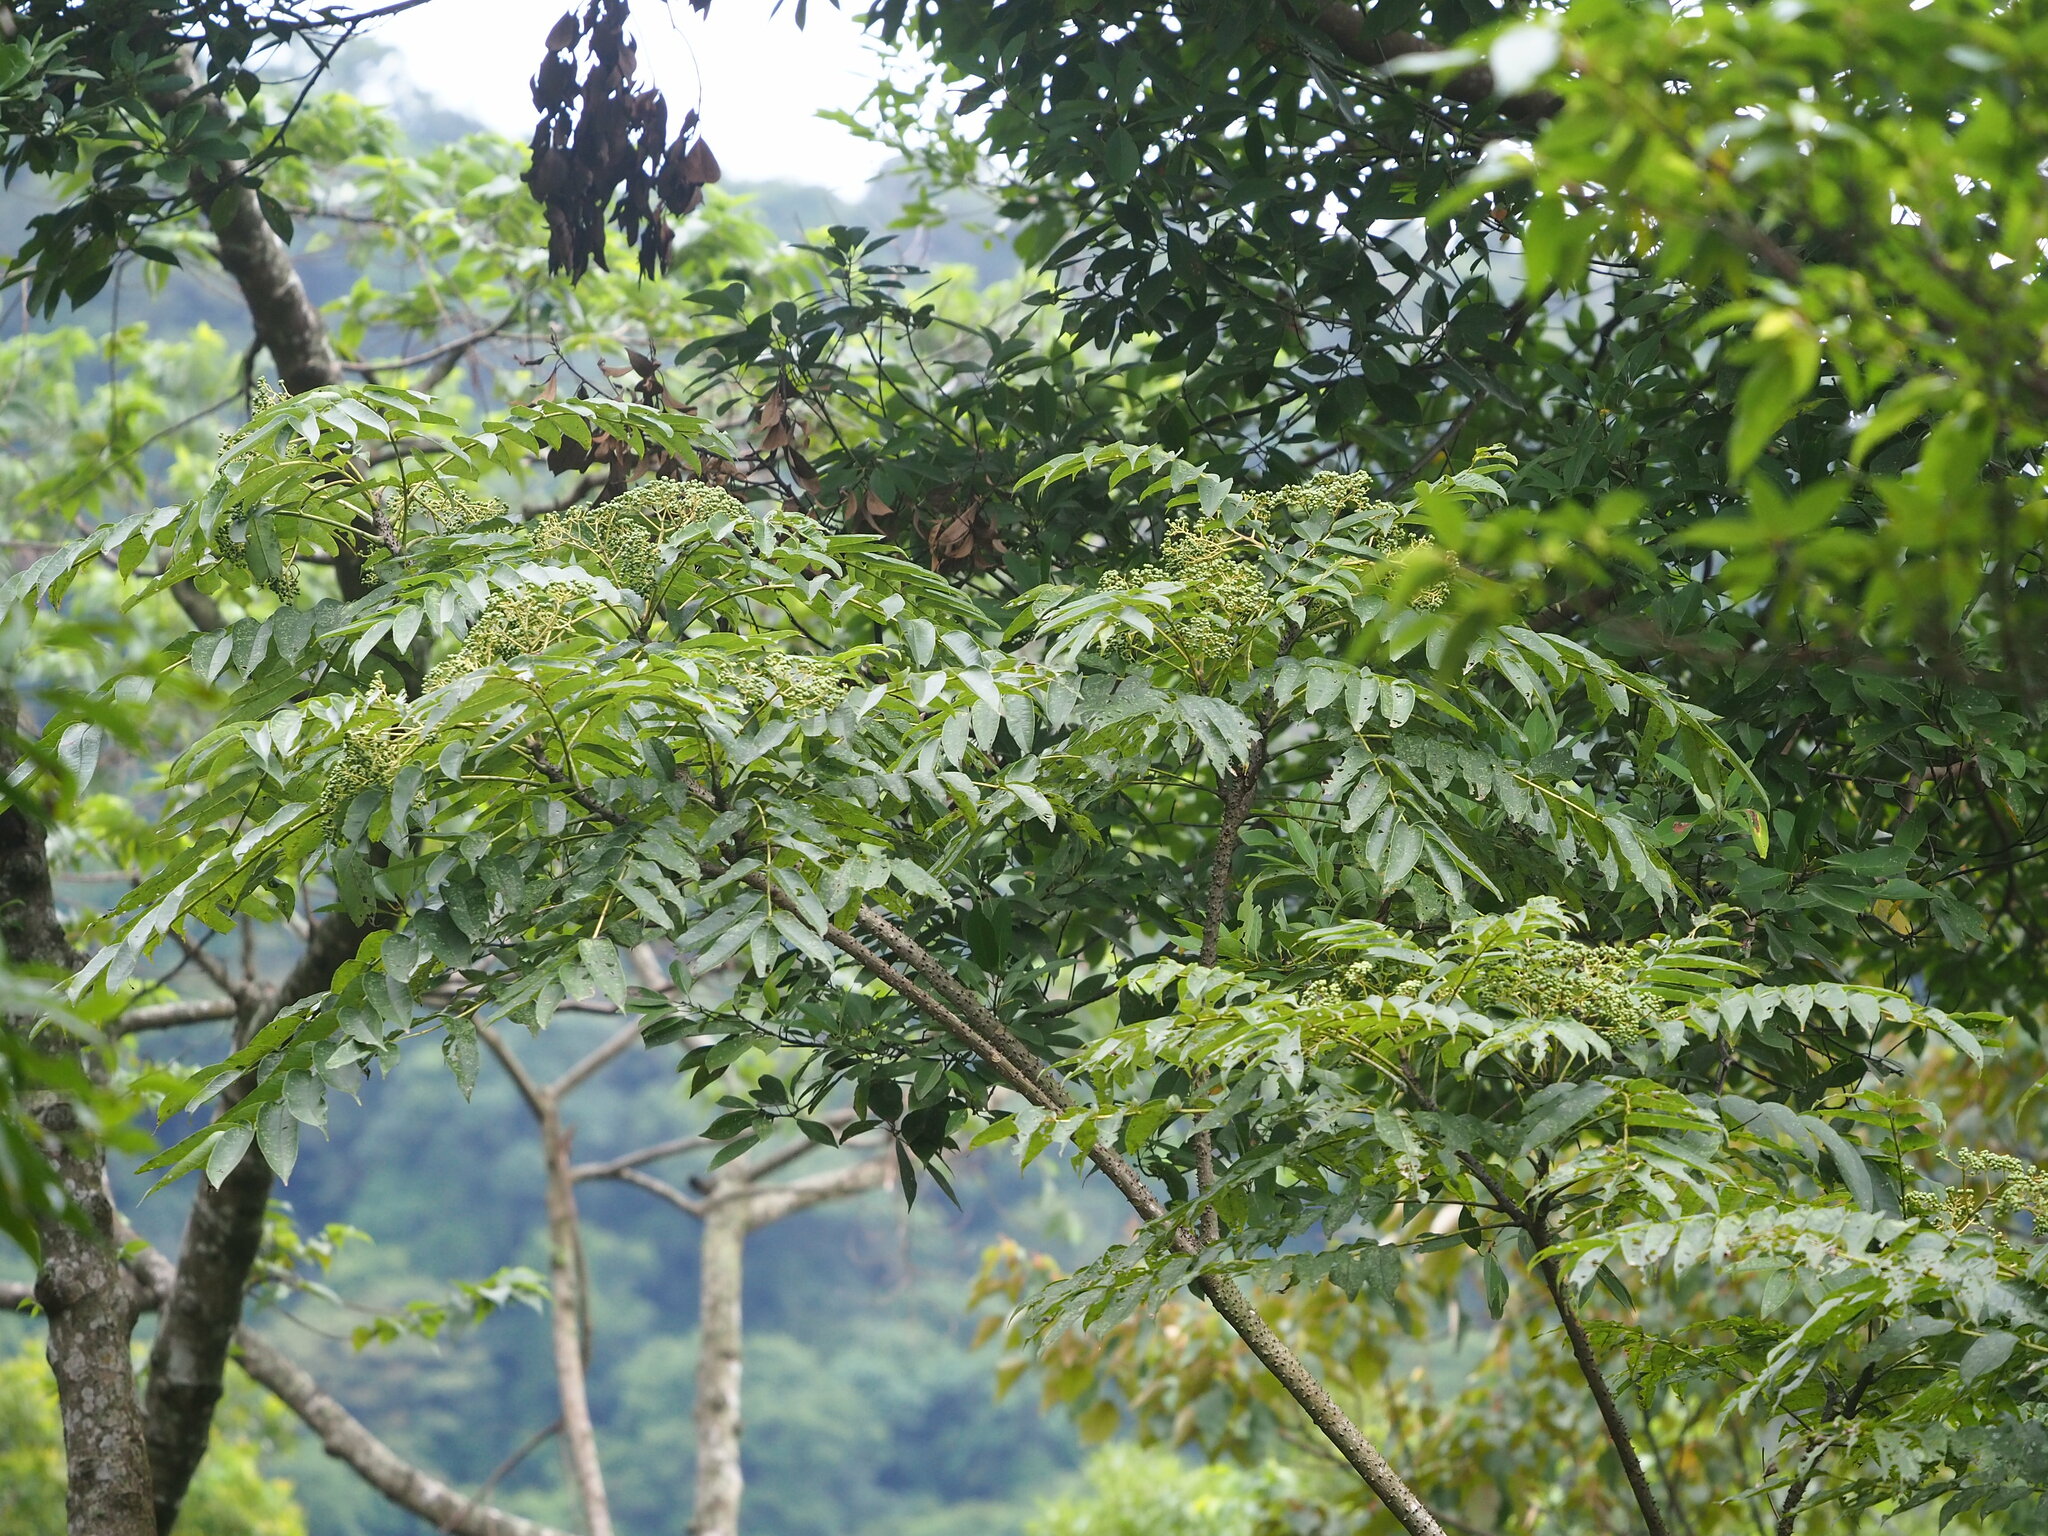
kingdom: Plantae
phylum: Tracheophyta
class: Magnoliopsida
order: Apiales
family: Araliaceae
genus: Aralia
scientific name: Aralia bipinnata
